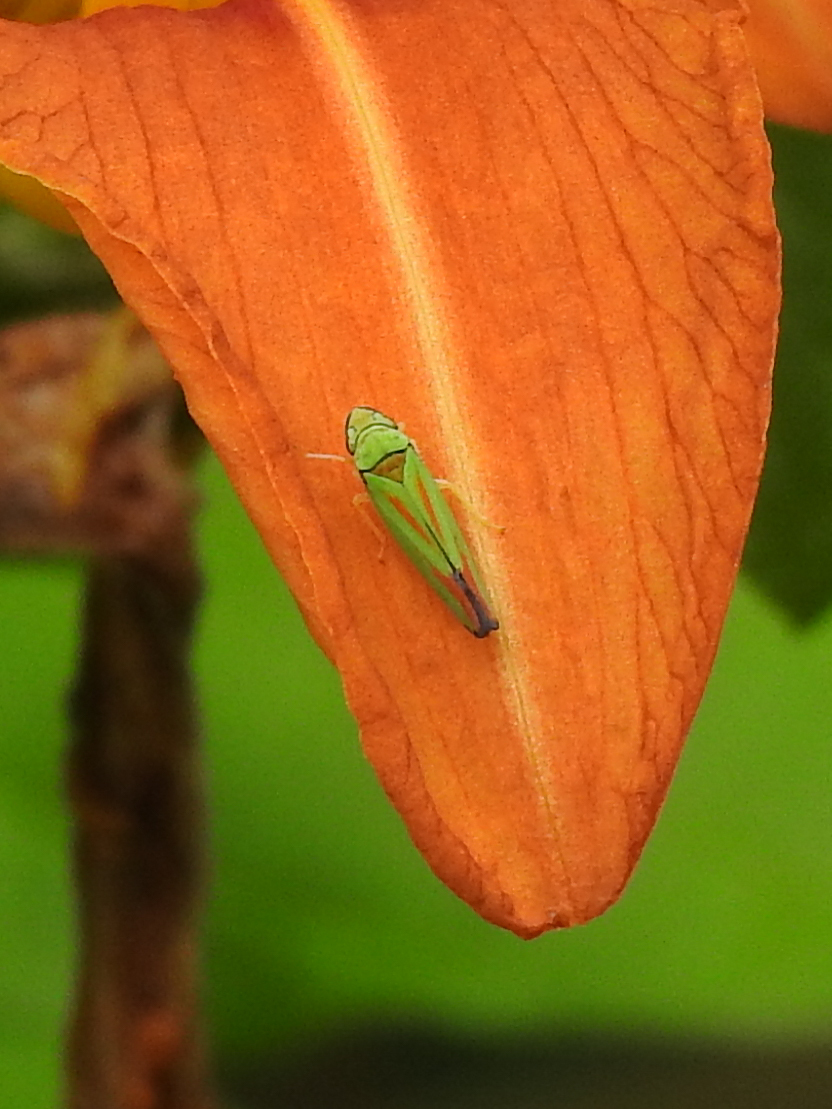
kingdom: Animalia
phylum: Arthropoda
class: Insecta
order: Hemiptera
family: Cicadellidae
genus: Graphocephala
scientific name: Graphocephala fennahi
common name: Rhododendron leafhopper
